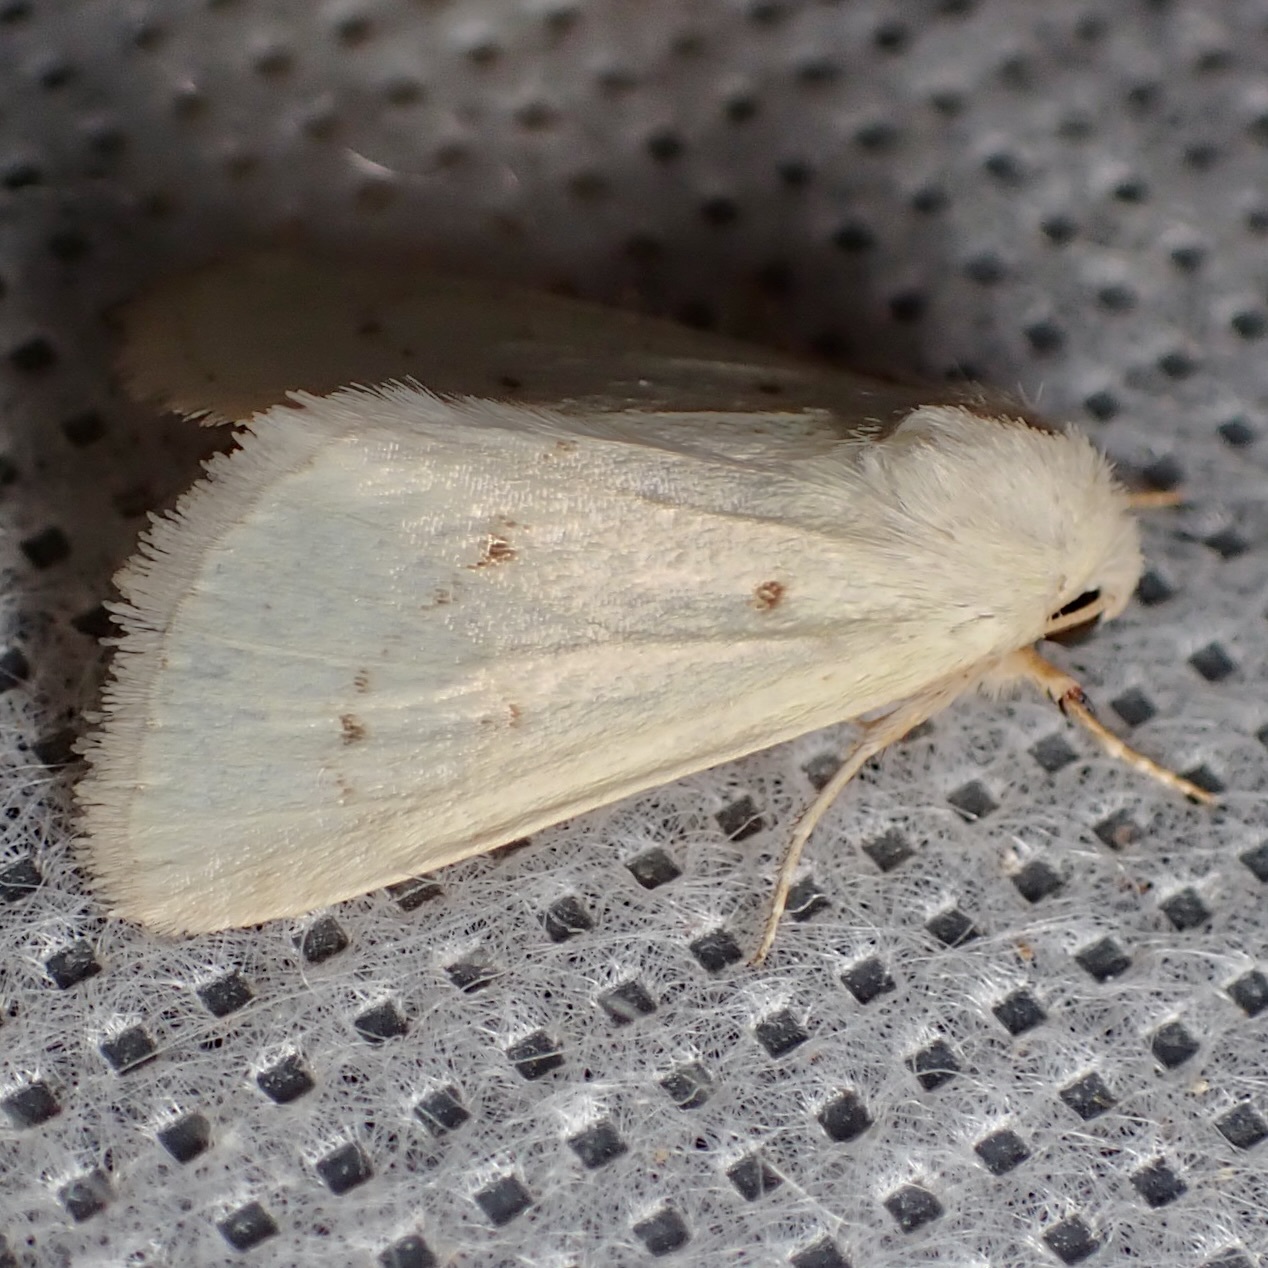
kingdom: Animalia
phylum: Arthropoda
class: Insecta
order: Lepidoptera
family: Noctuidae
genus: Schinia
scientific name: Schinia luxa
